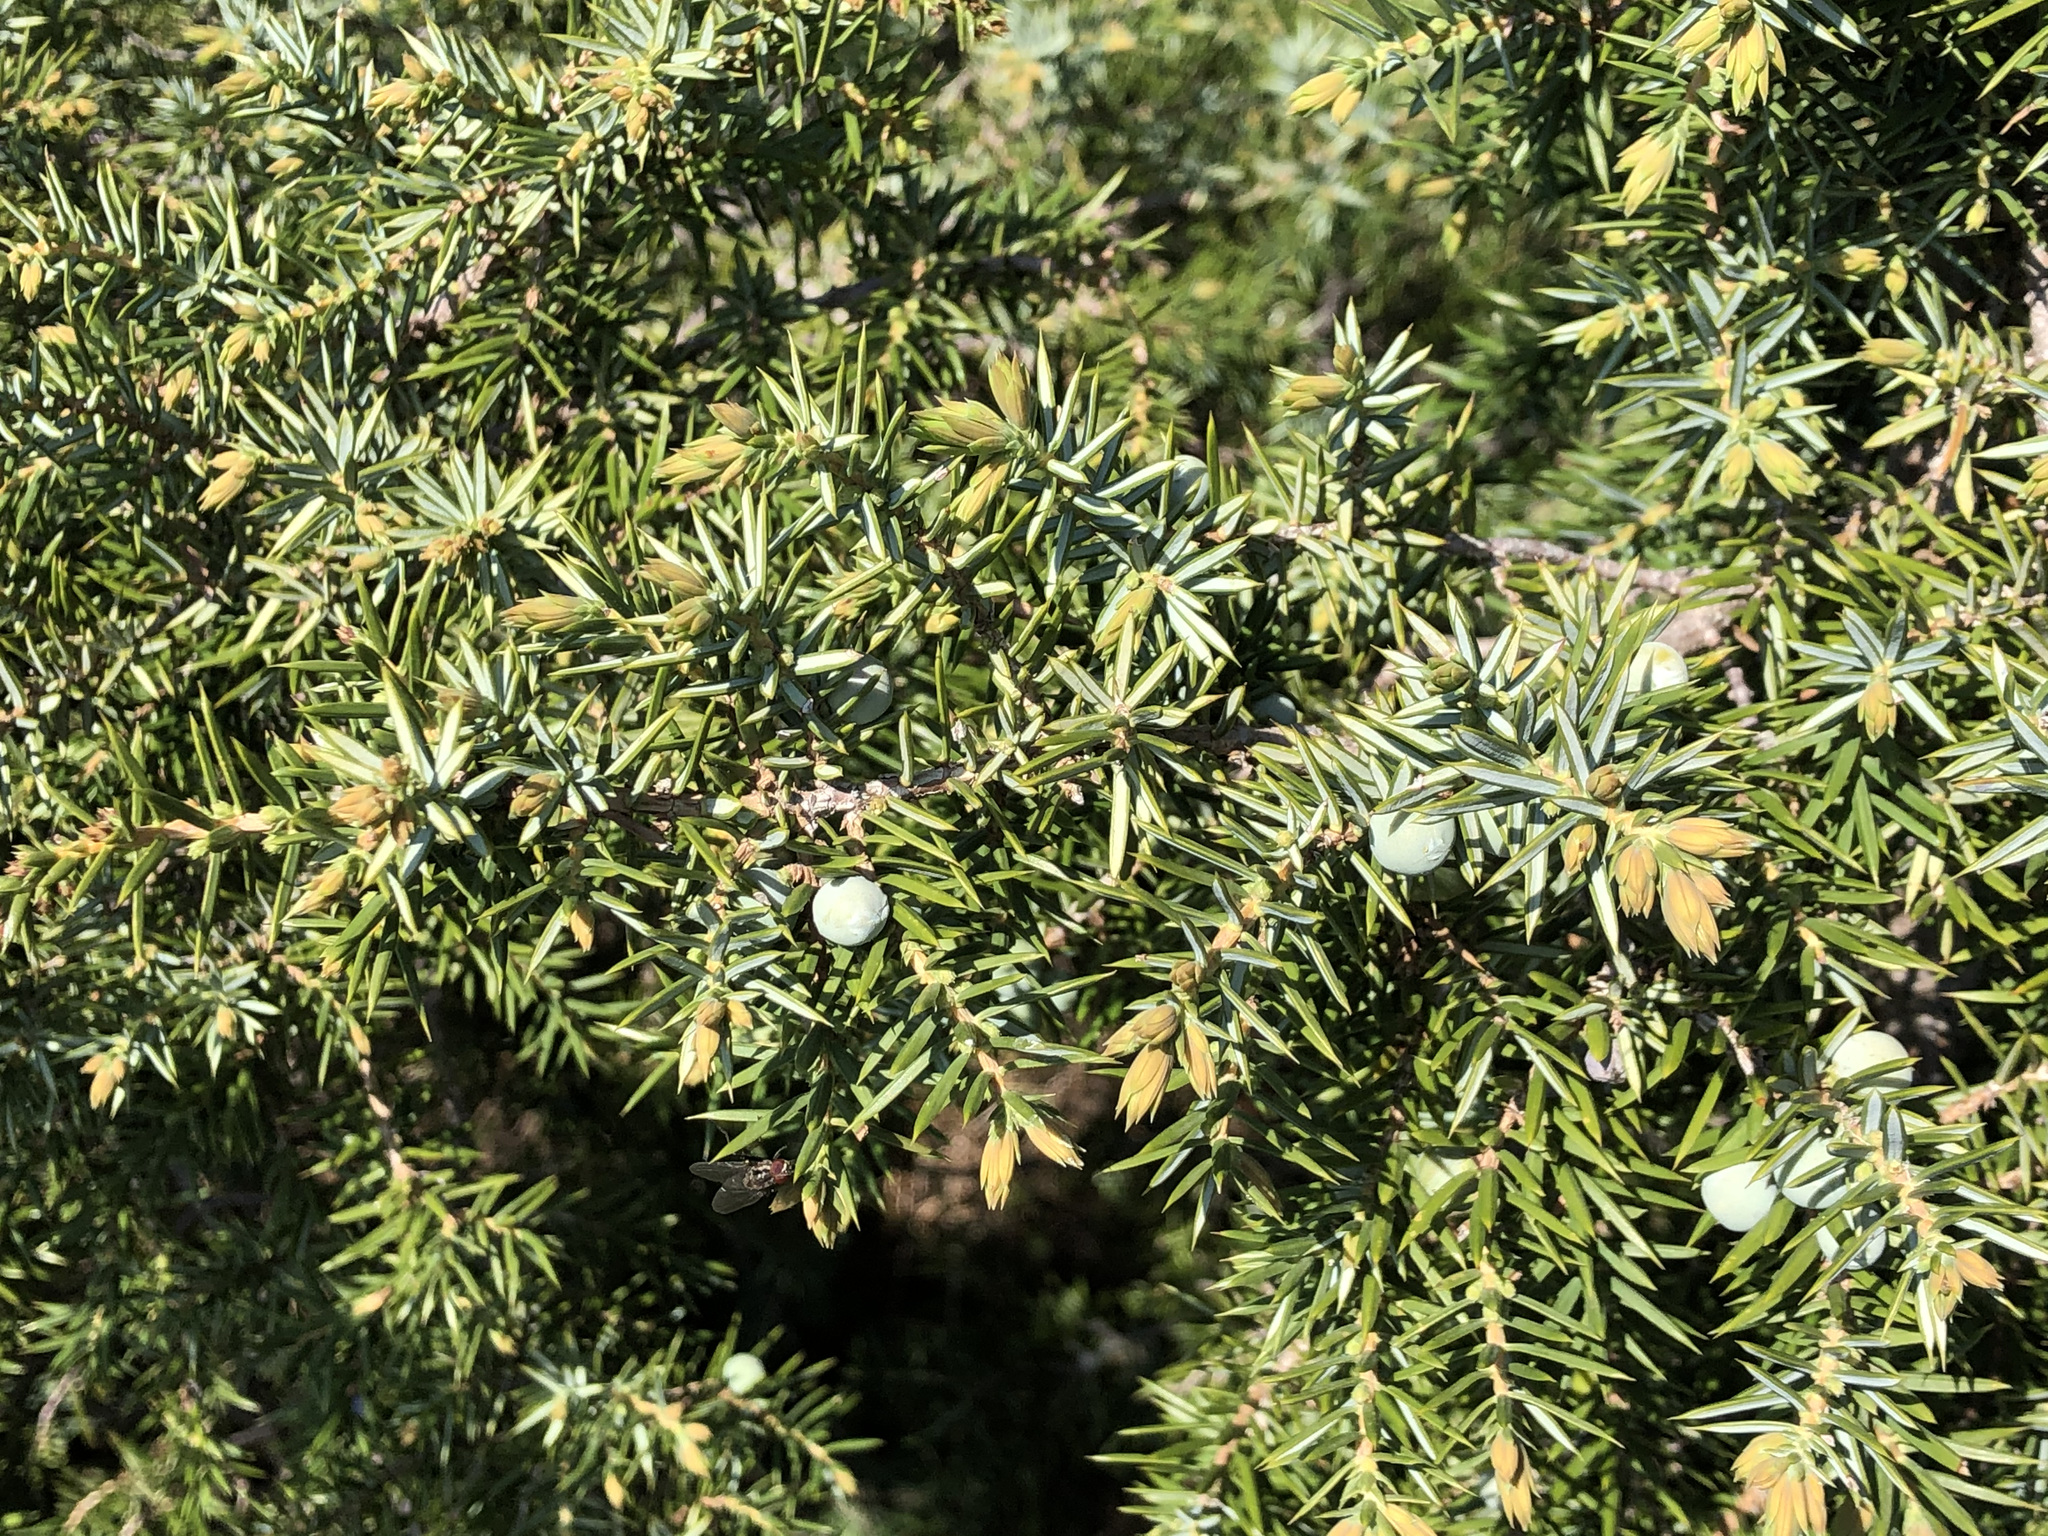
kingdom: Plantae
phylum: Tracheophyta
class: Pinopsida
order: Pinales
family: Cupressaceae
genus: Juniperus
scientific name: Juniperus communis
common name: Common juniper
